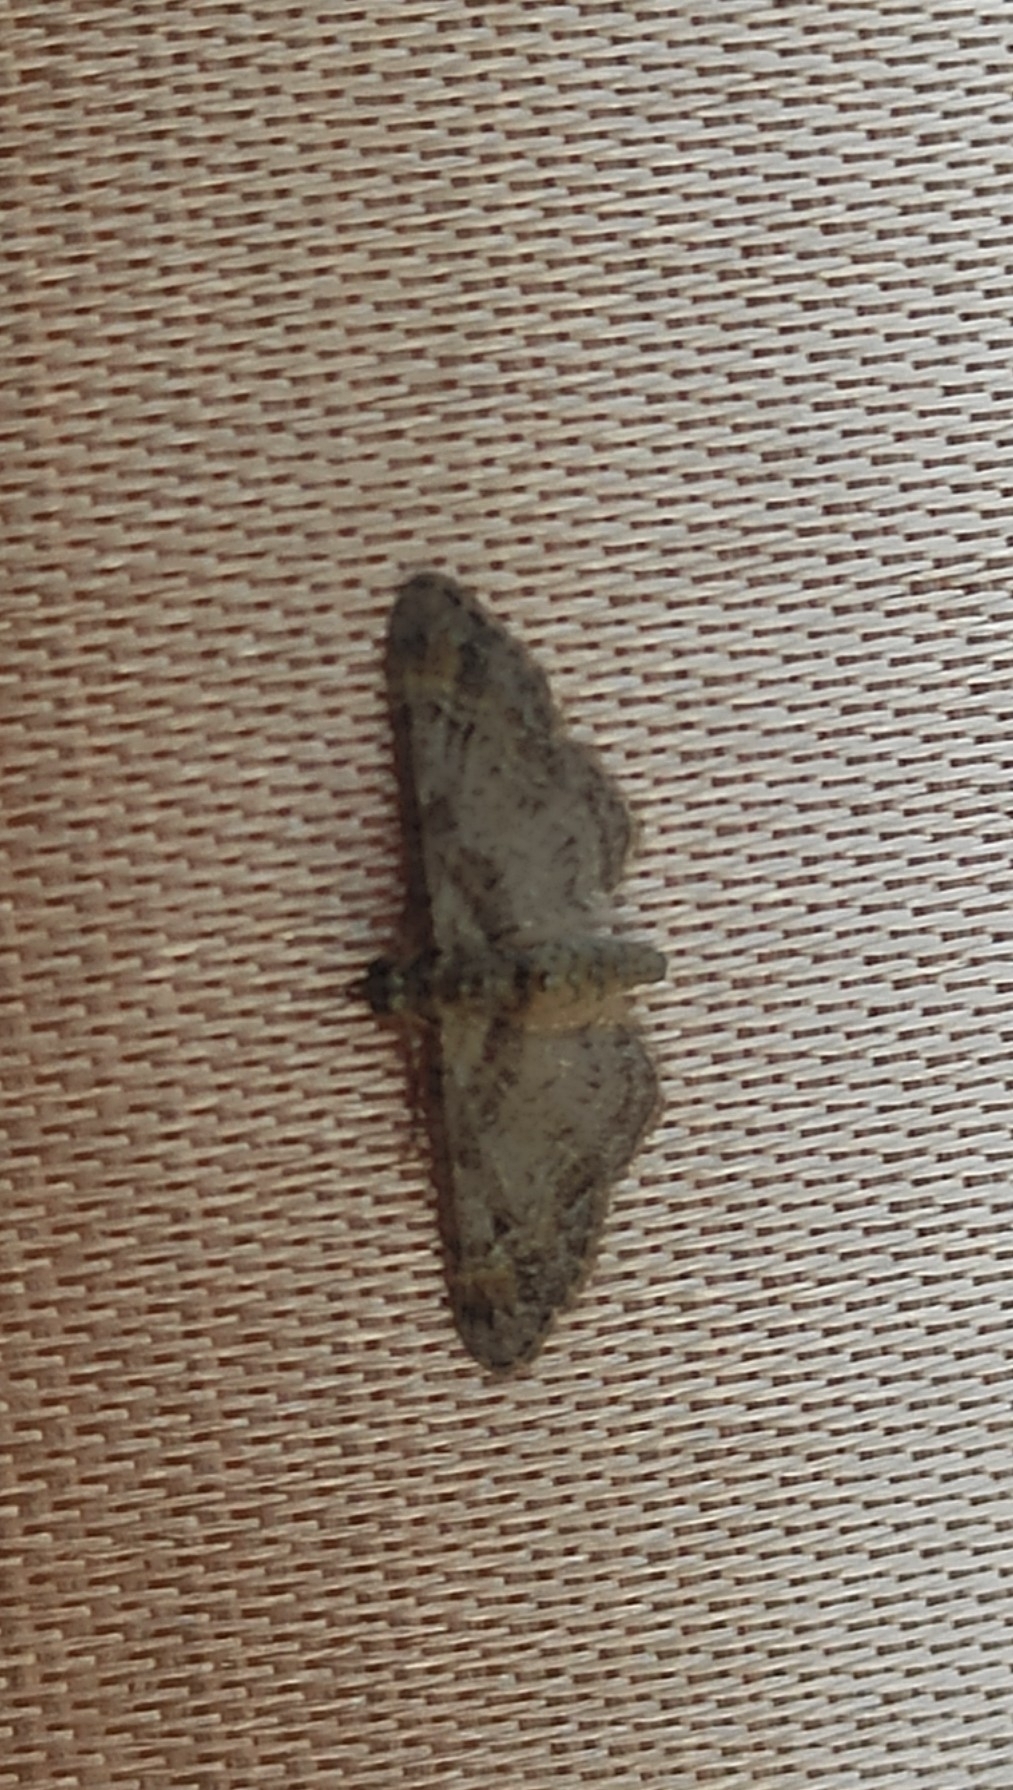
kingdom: Animalia
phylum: Arthropoda
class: Insecta
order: Lepidoptera
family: Geometridae
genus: Gymnoscelis
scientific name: Gymnoscelis rufifasciata
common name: Double-striped pug
